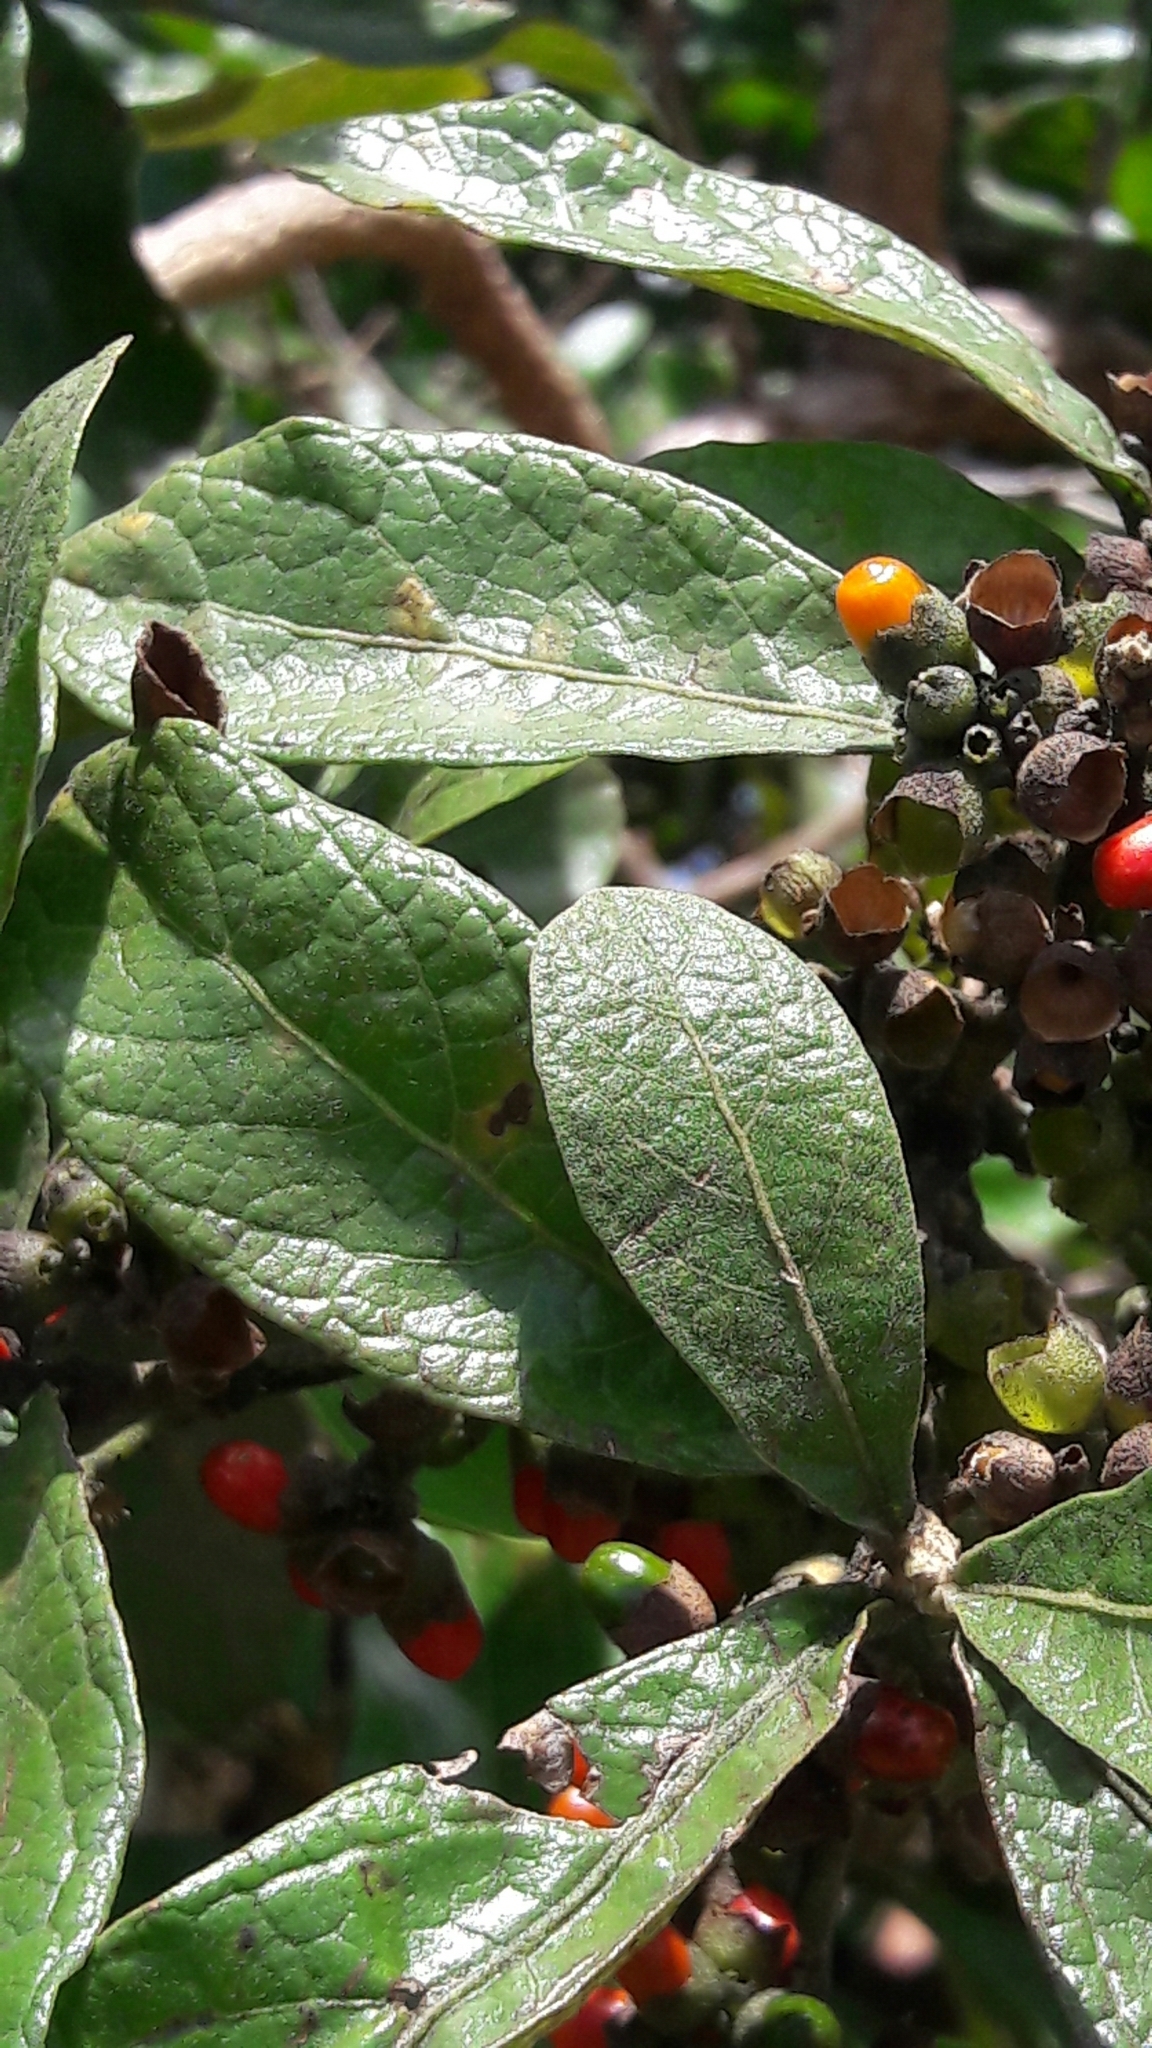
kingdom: Plantae
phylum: Tracheophyta
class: Magnoliopsida
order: Lamiales
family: Lamiaceae
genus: Aegiphila
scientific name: Aegiphila verticillata
